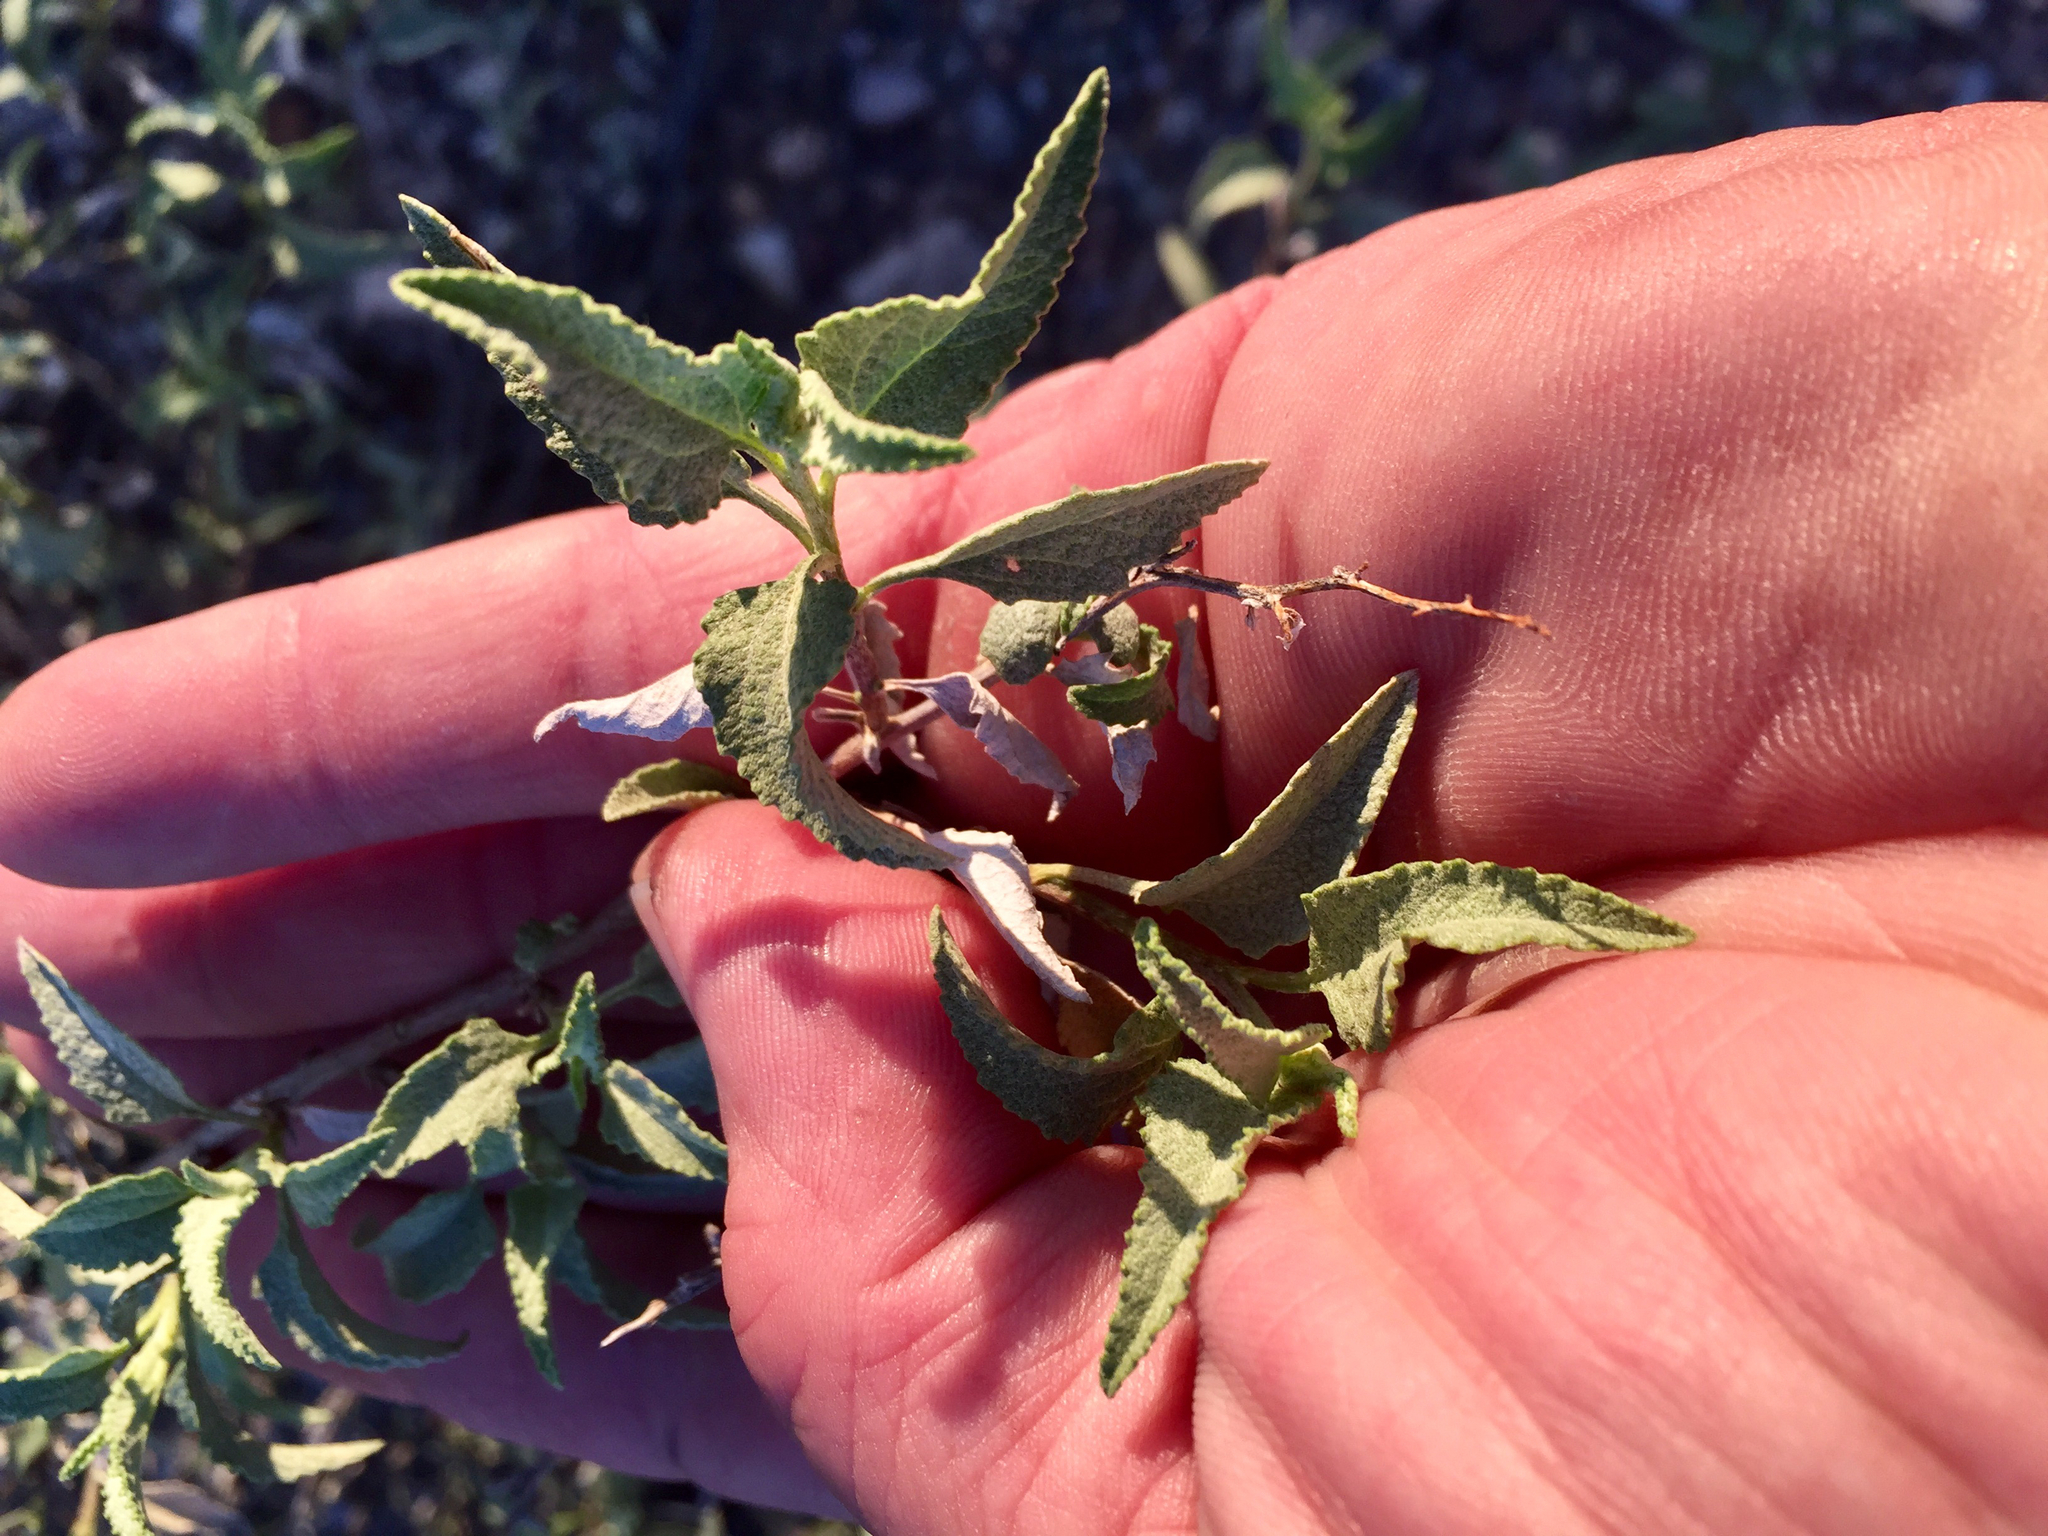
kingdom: Plantae
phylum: Tracheophyta
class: Magnoliopsida
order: Asterales
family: Asteraceae
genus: Ambrosia
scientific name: Ambrosia deltoidea
